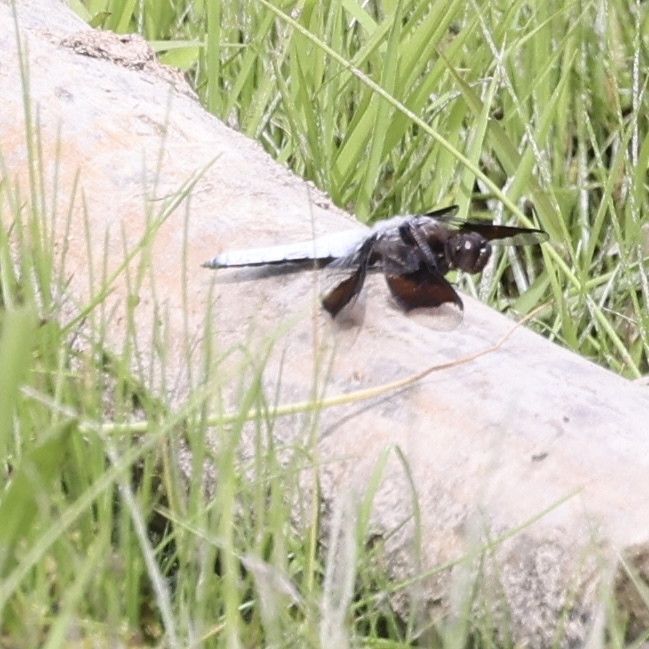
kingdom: Animalia
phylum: Arthropoda
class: Insecta
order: Odonata
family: Libellulidae
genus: Plathemis
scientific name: Plathemis lydia
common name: Common whitetail
